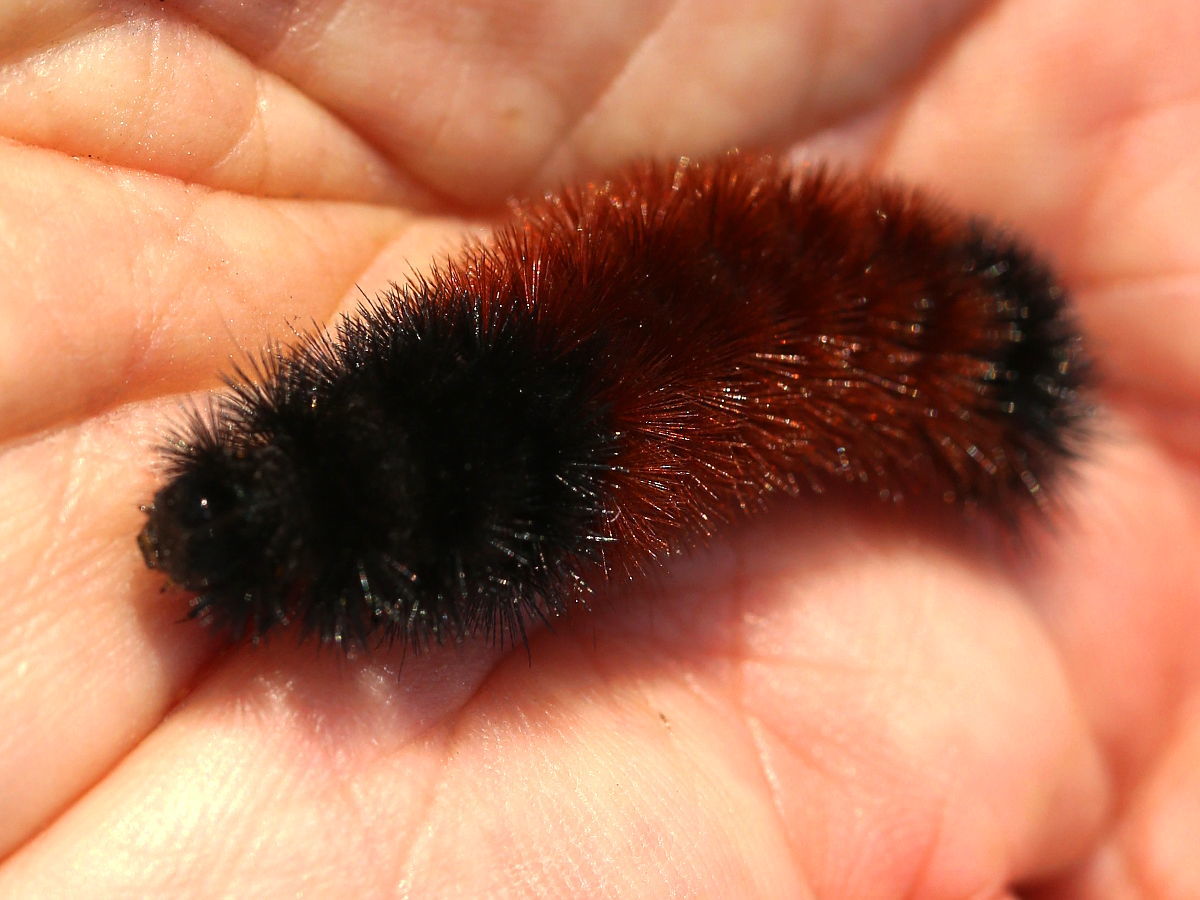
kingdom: Animalia
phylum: Arthropoda
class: Insecta
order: Lepidoptera
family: Erebidae
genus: Pyrrharctia
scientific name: Pyrrharctia isabella
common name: Isabella tiger moth
